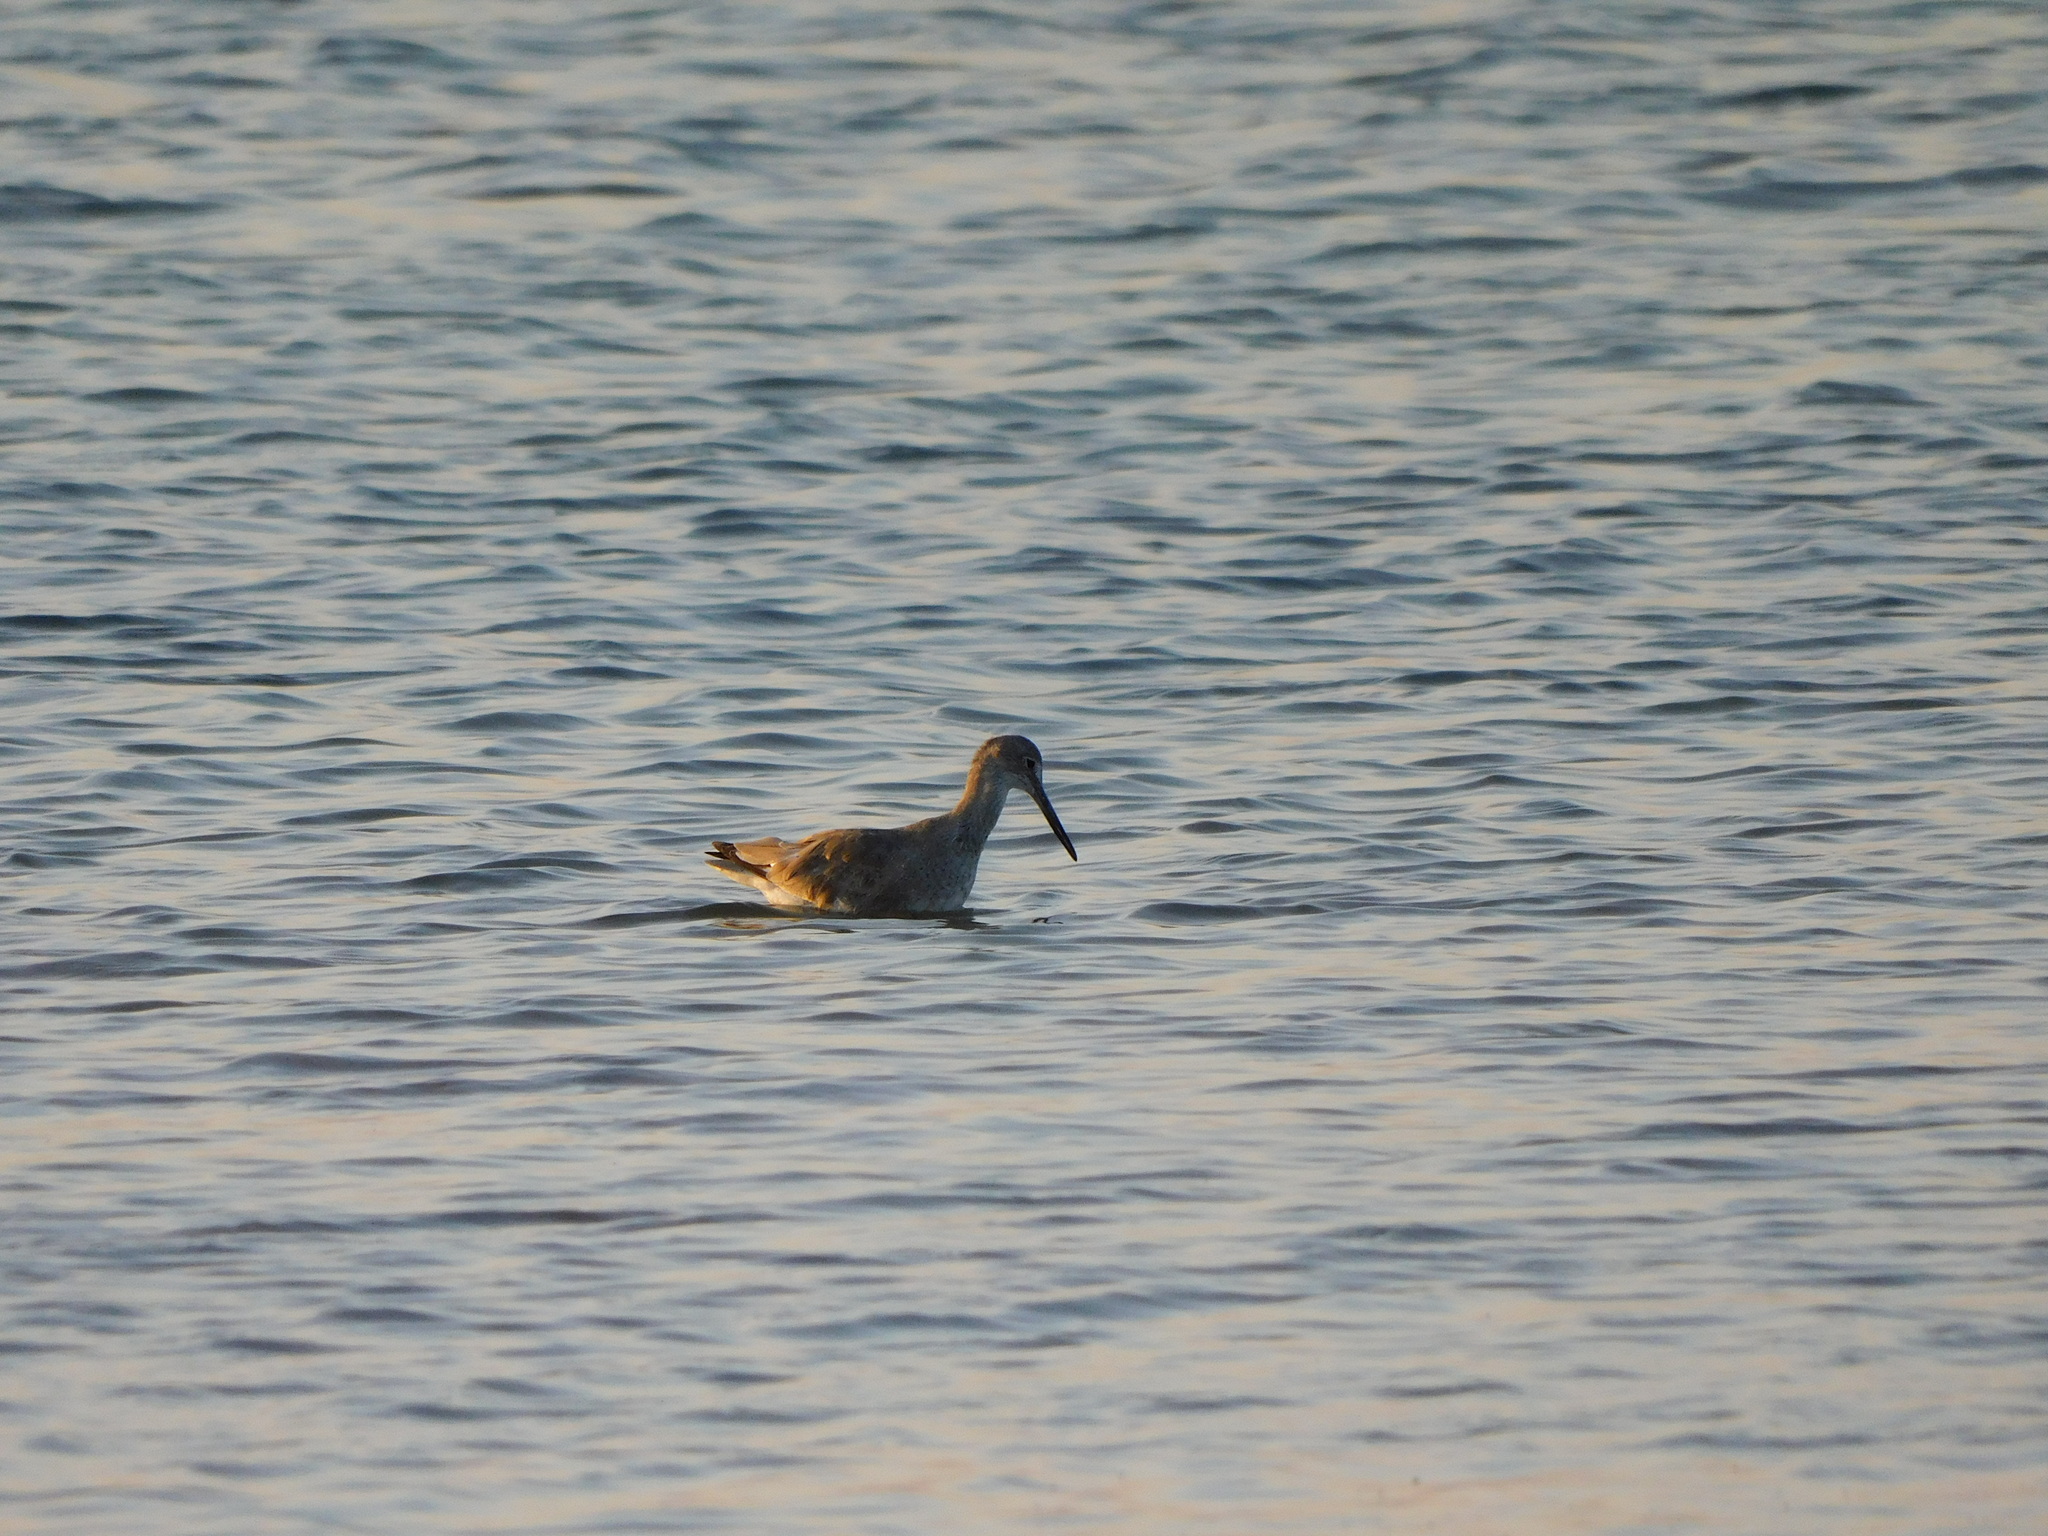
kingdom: Animalia
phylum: Chordata
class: Aves
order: Charadriiformes
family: Scolopacidae
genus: Tringa
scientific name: Tringa semipalmata
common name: Willet
